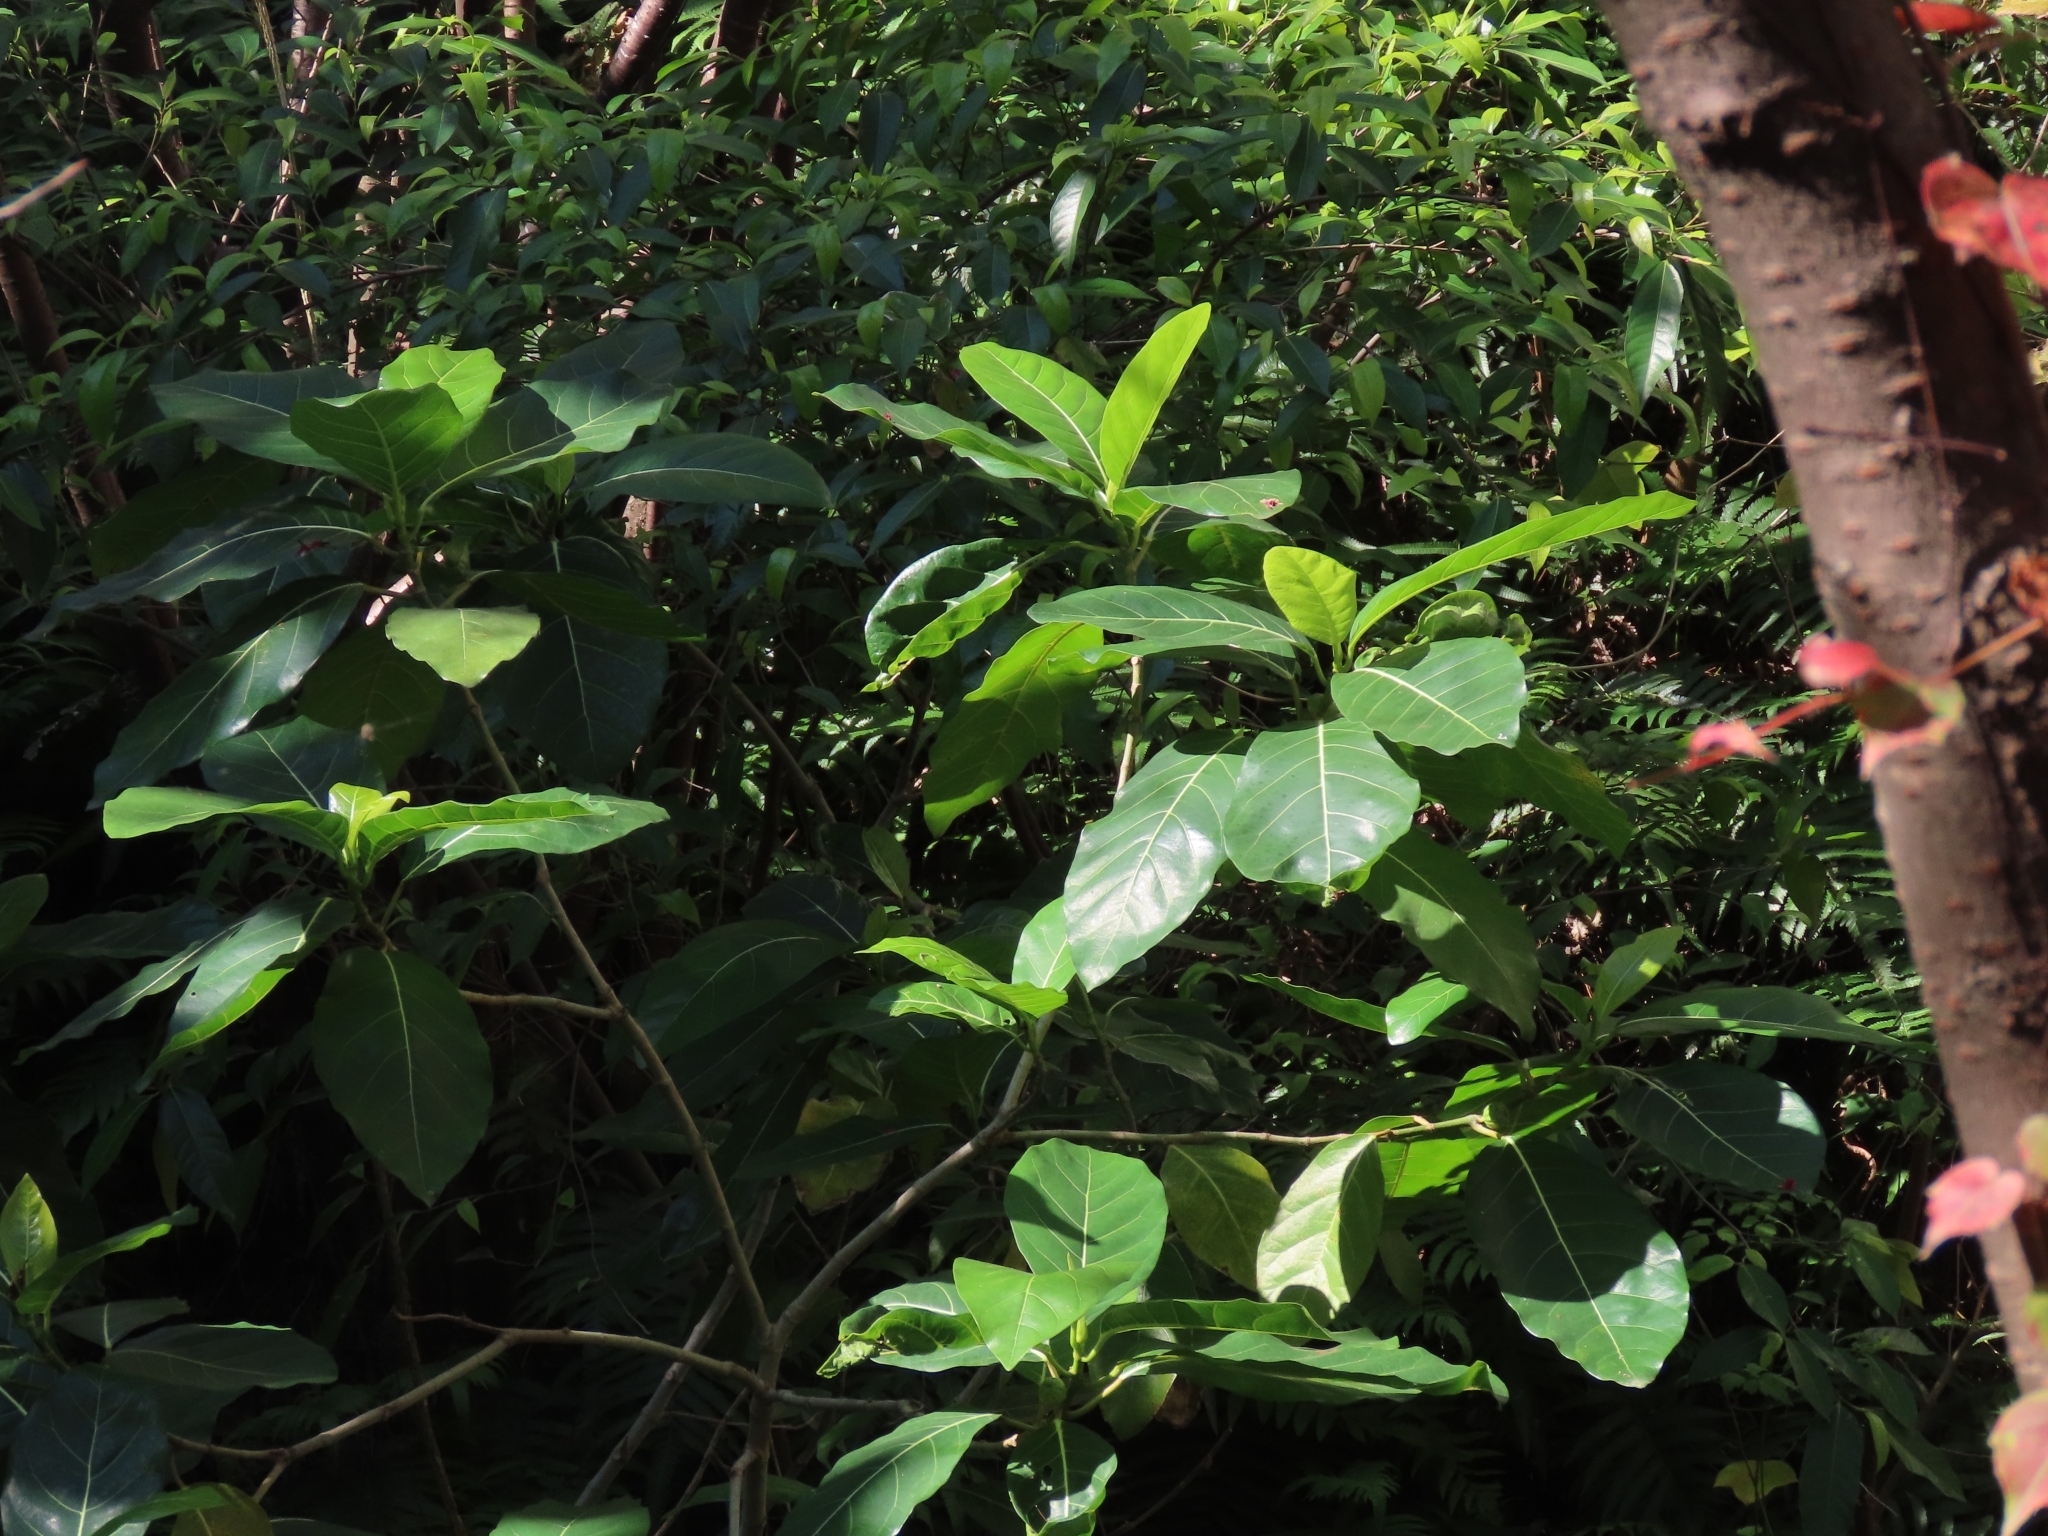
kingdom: Plantae
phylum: Tracheophyta
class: Magnoliopsida
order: Rosales
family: Moraceae
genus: Ficus
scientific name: Ficus septica
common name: Septic fig
